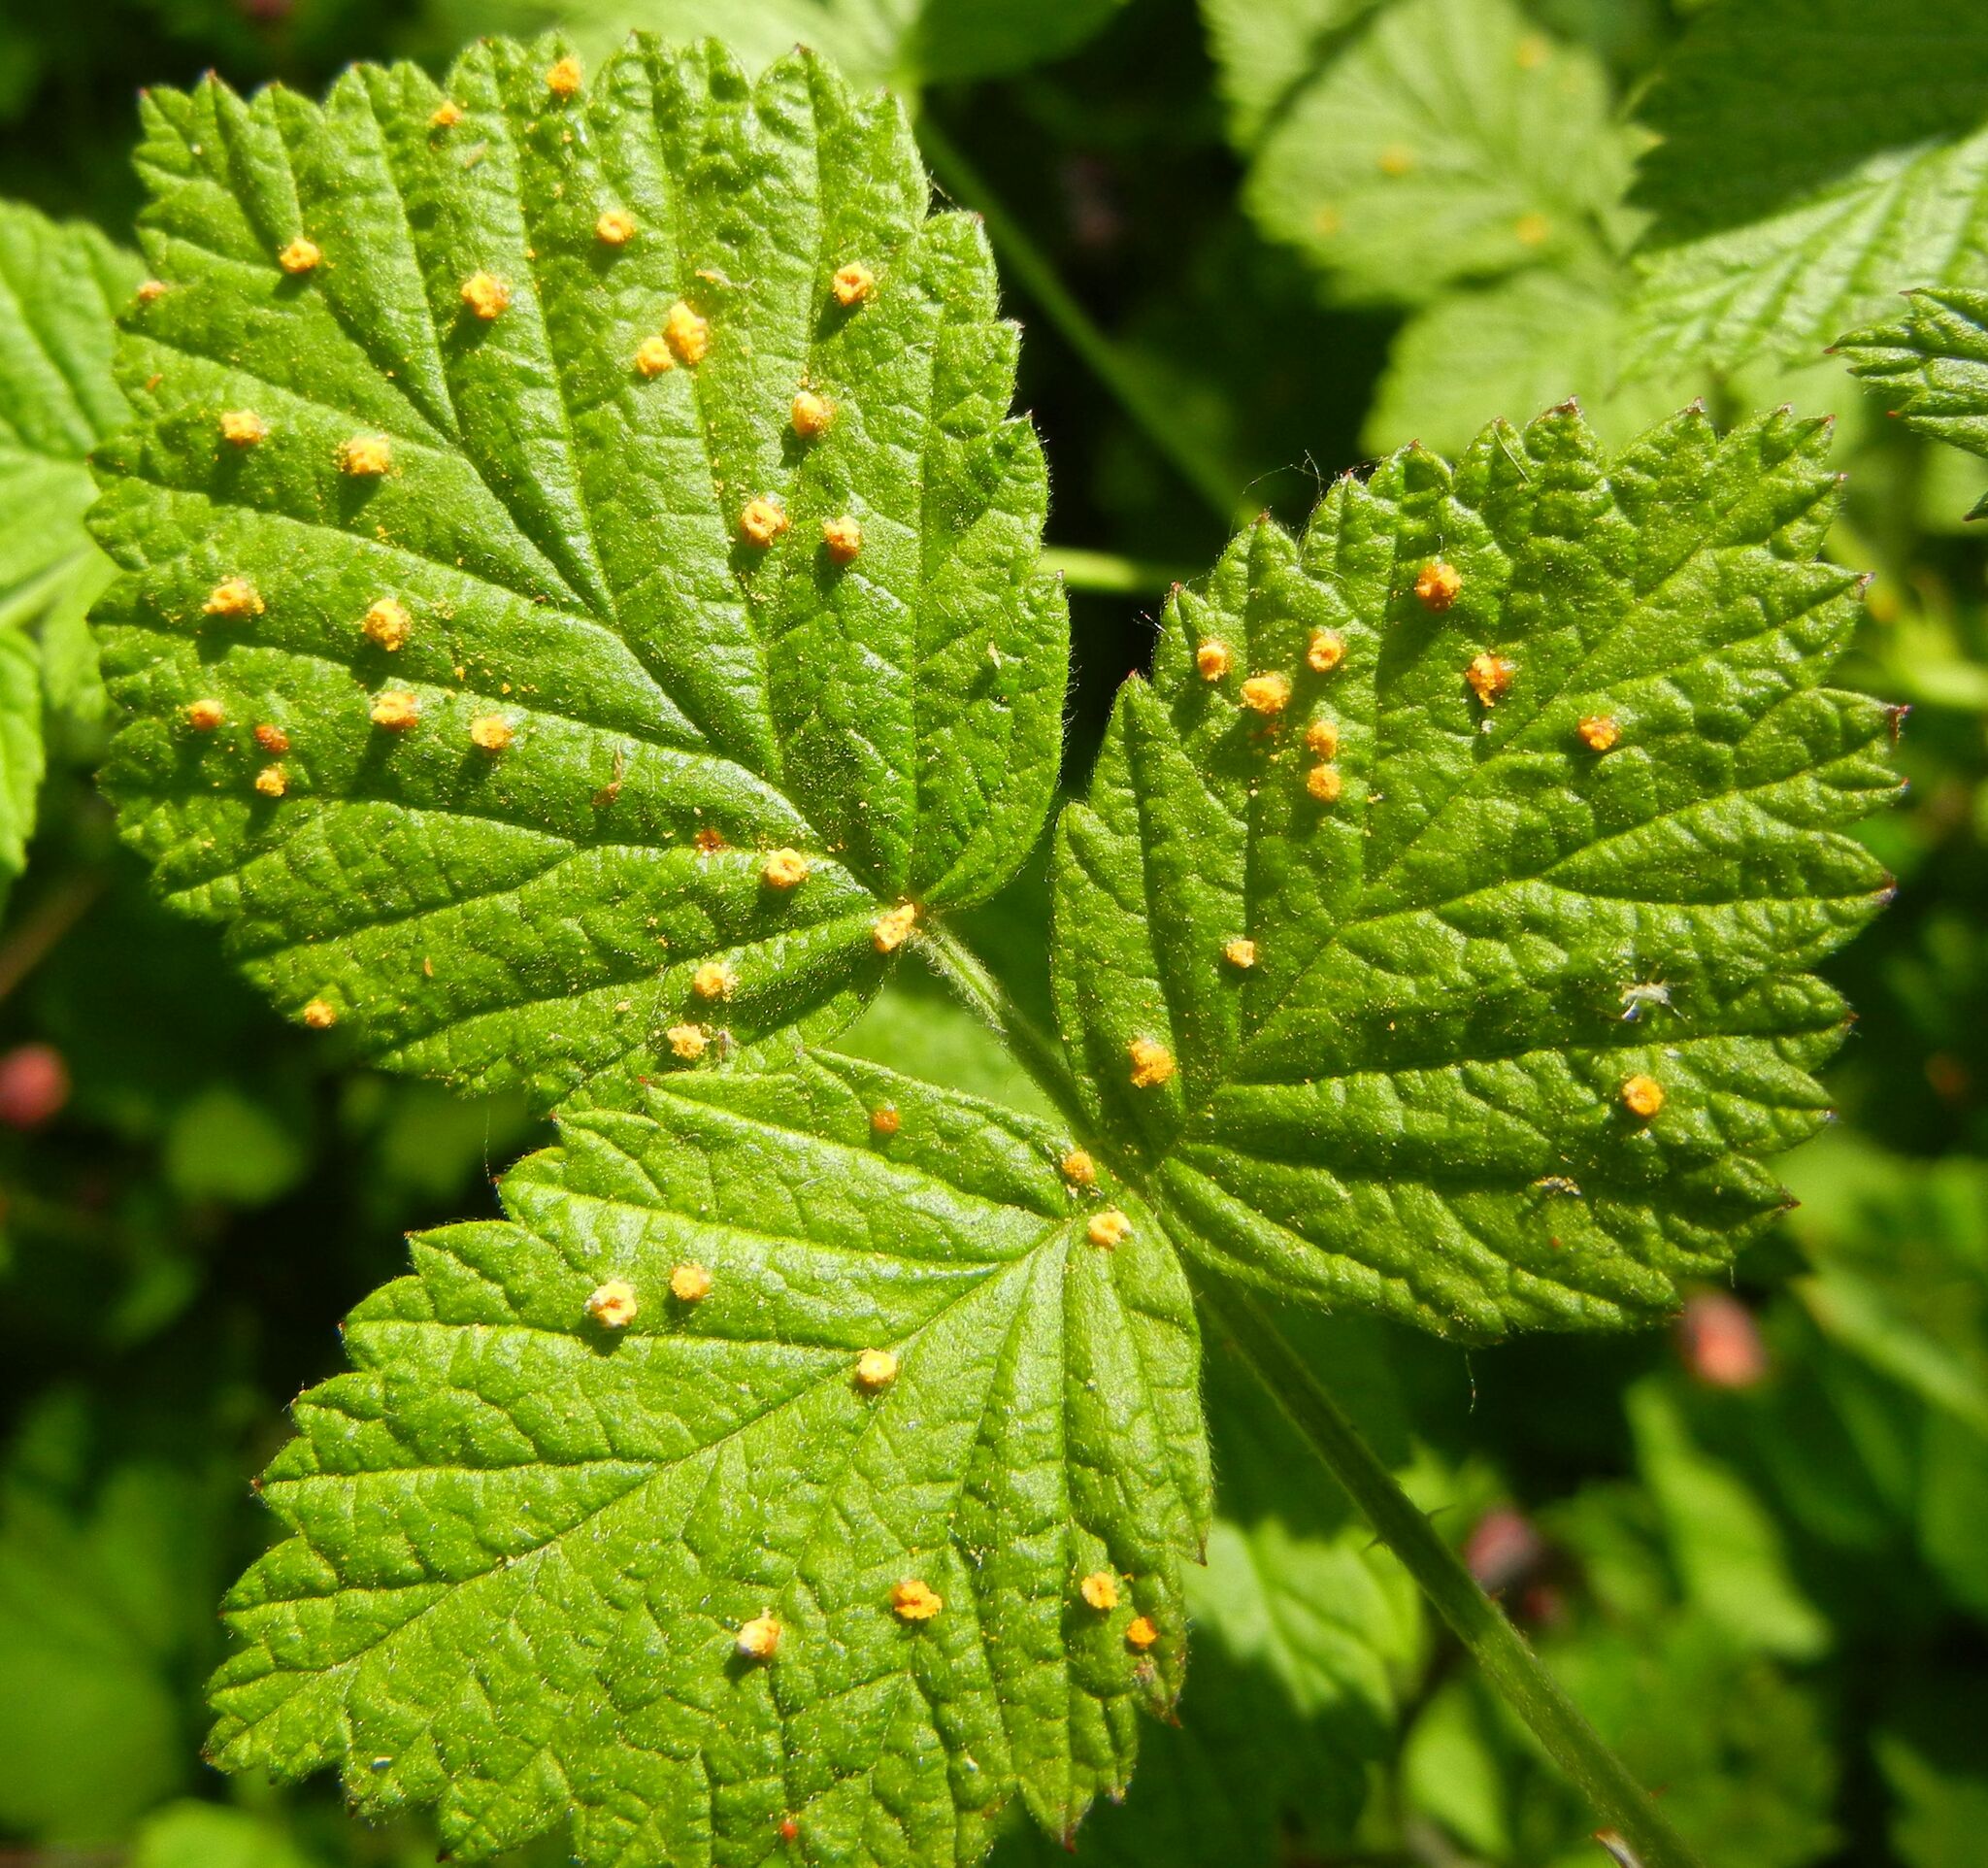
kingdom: Fungi
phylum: Basidiomycota
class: Pucciniomycetes
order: Pucciniales
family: Phragmidiaceae
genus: Phragmidium
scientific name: Phragmidium rubi-idaei
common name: Raspberry rust
